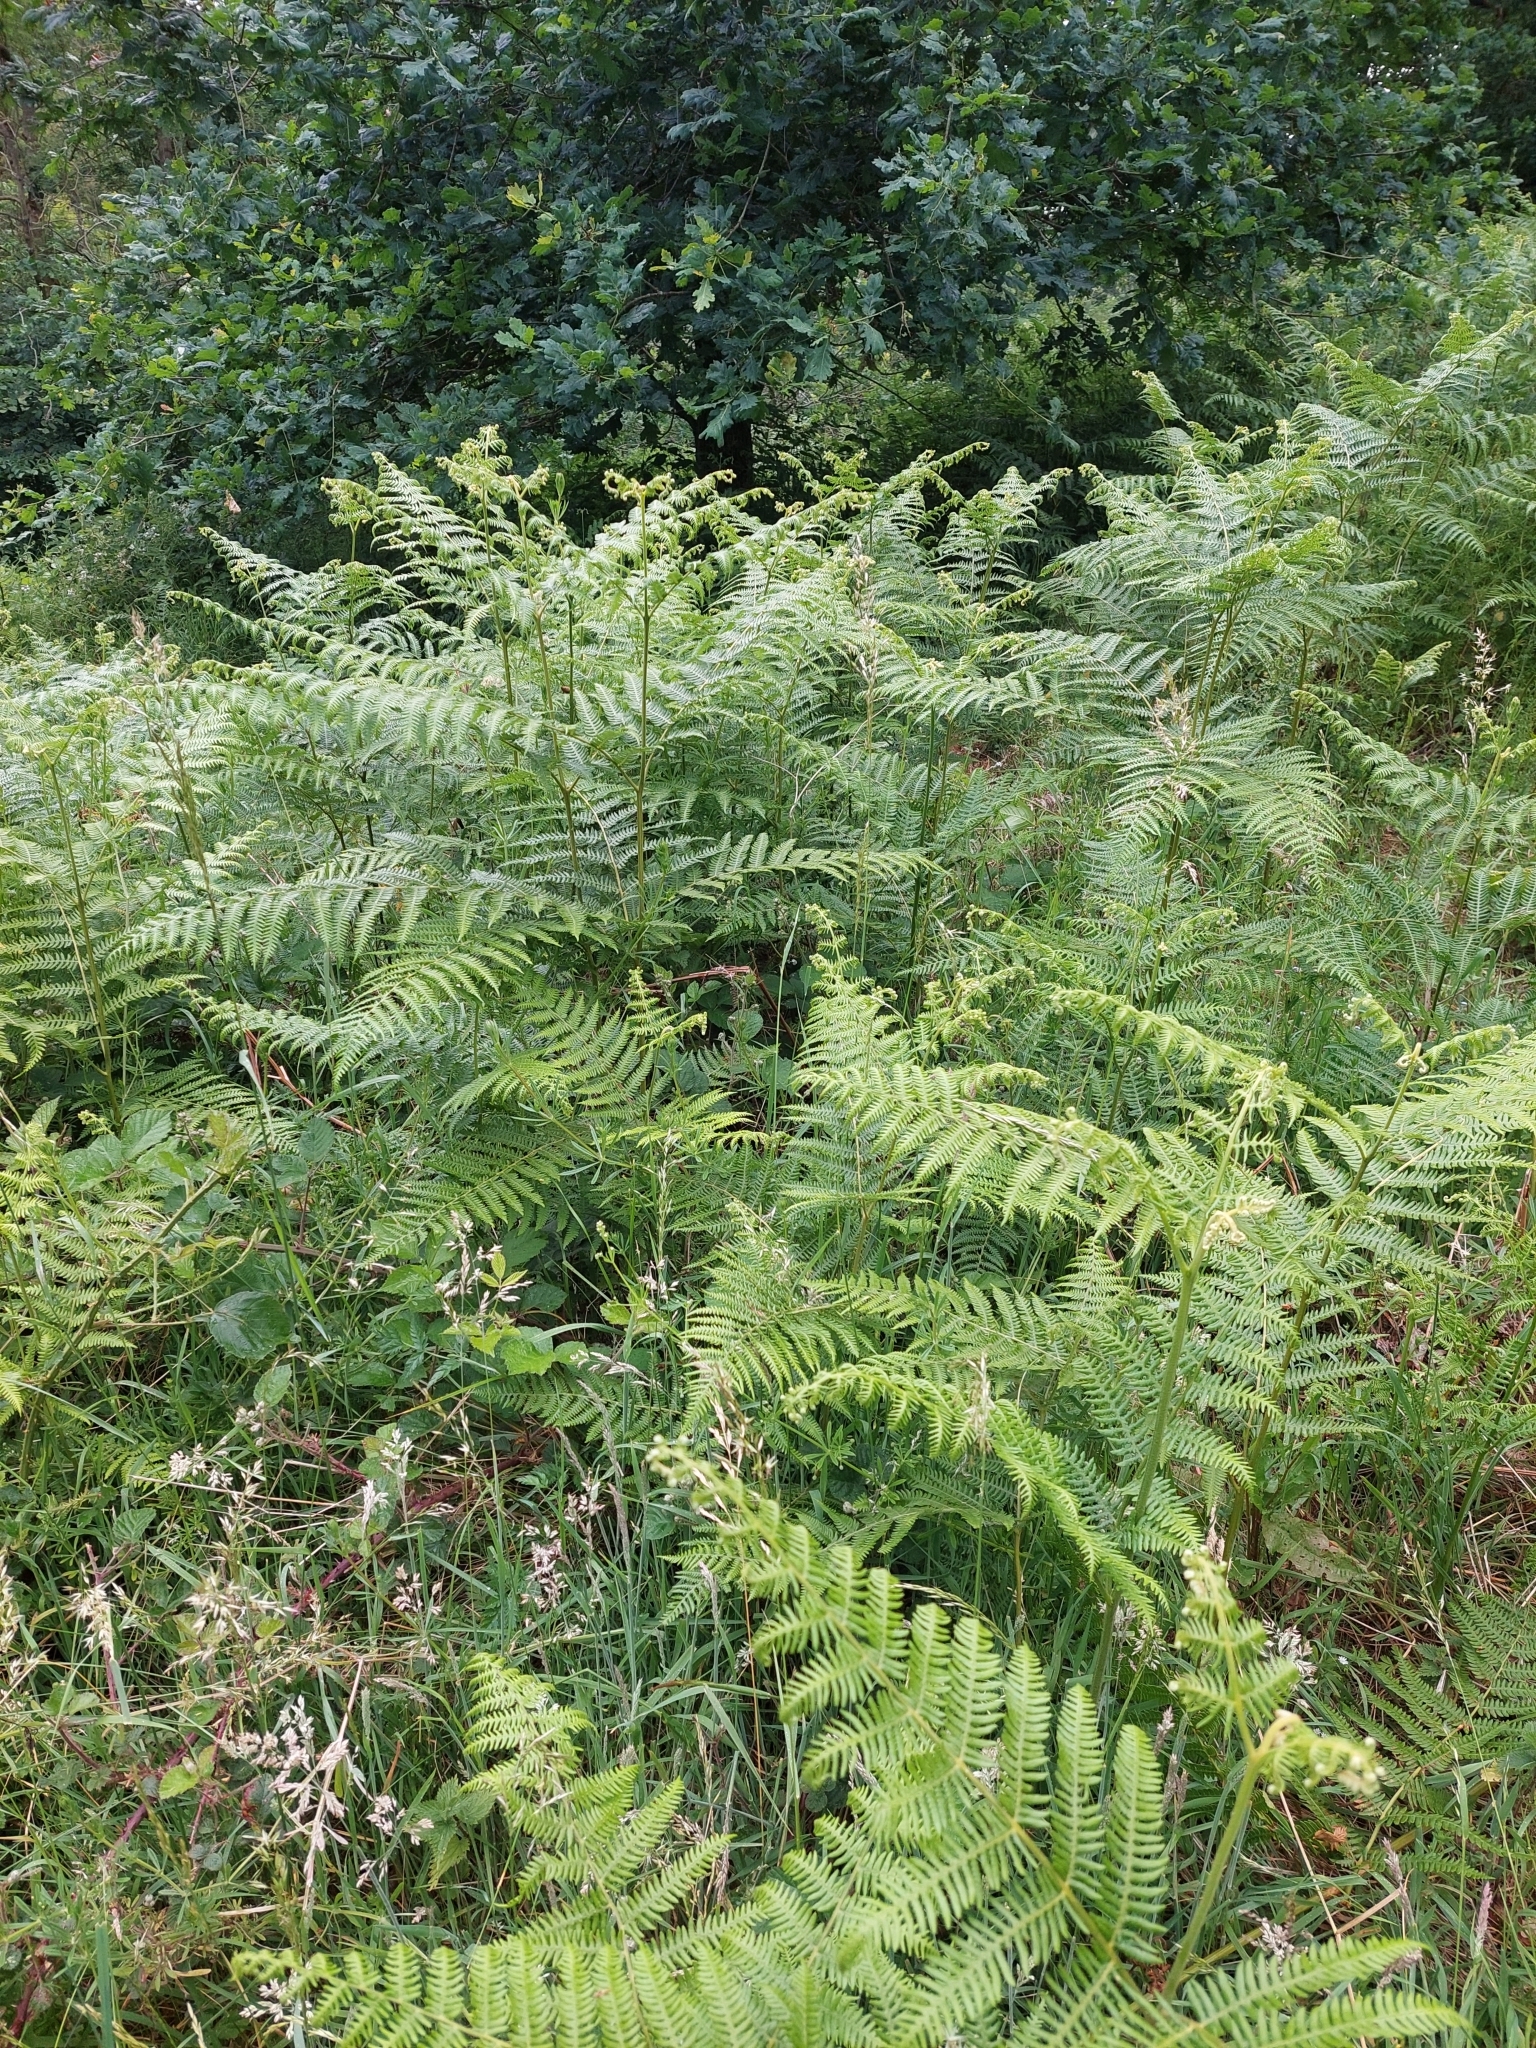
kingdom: Plantae
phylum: Tracheophyta
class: Polypodiopsida
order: Polypodiales
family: Dennstaedtiaceae
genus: Pteridium
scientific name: Pteridium aquilinum
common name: Bracken
